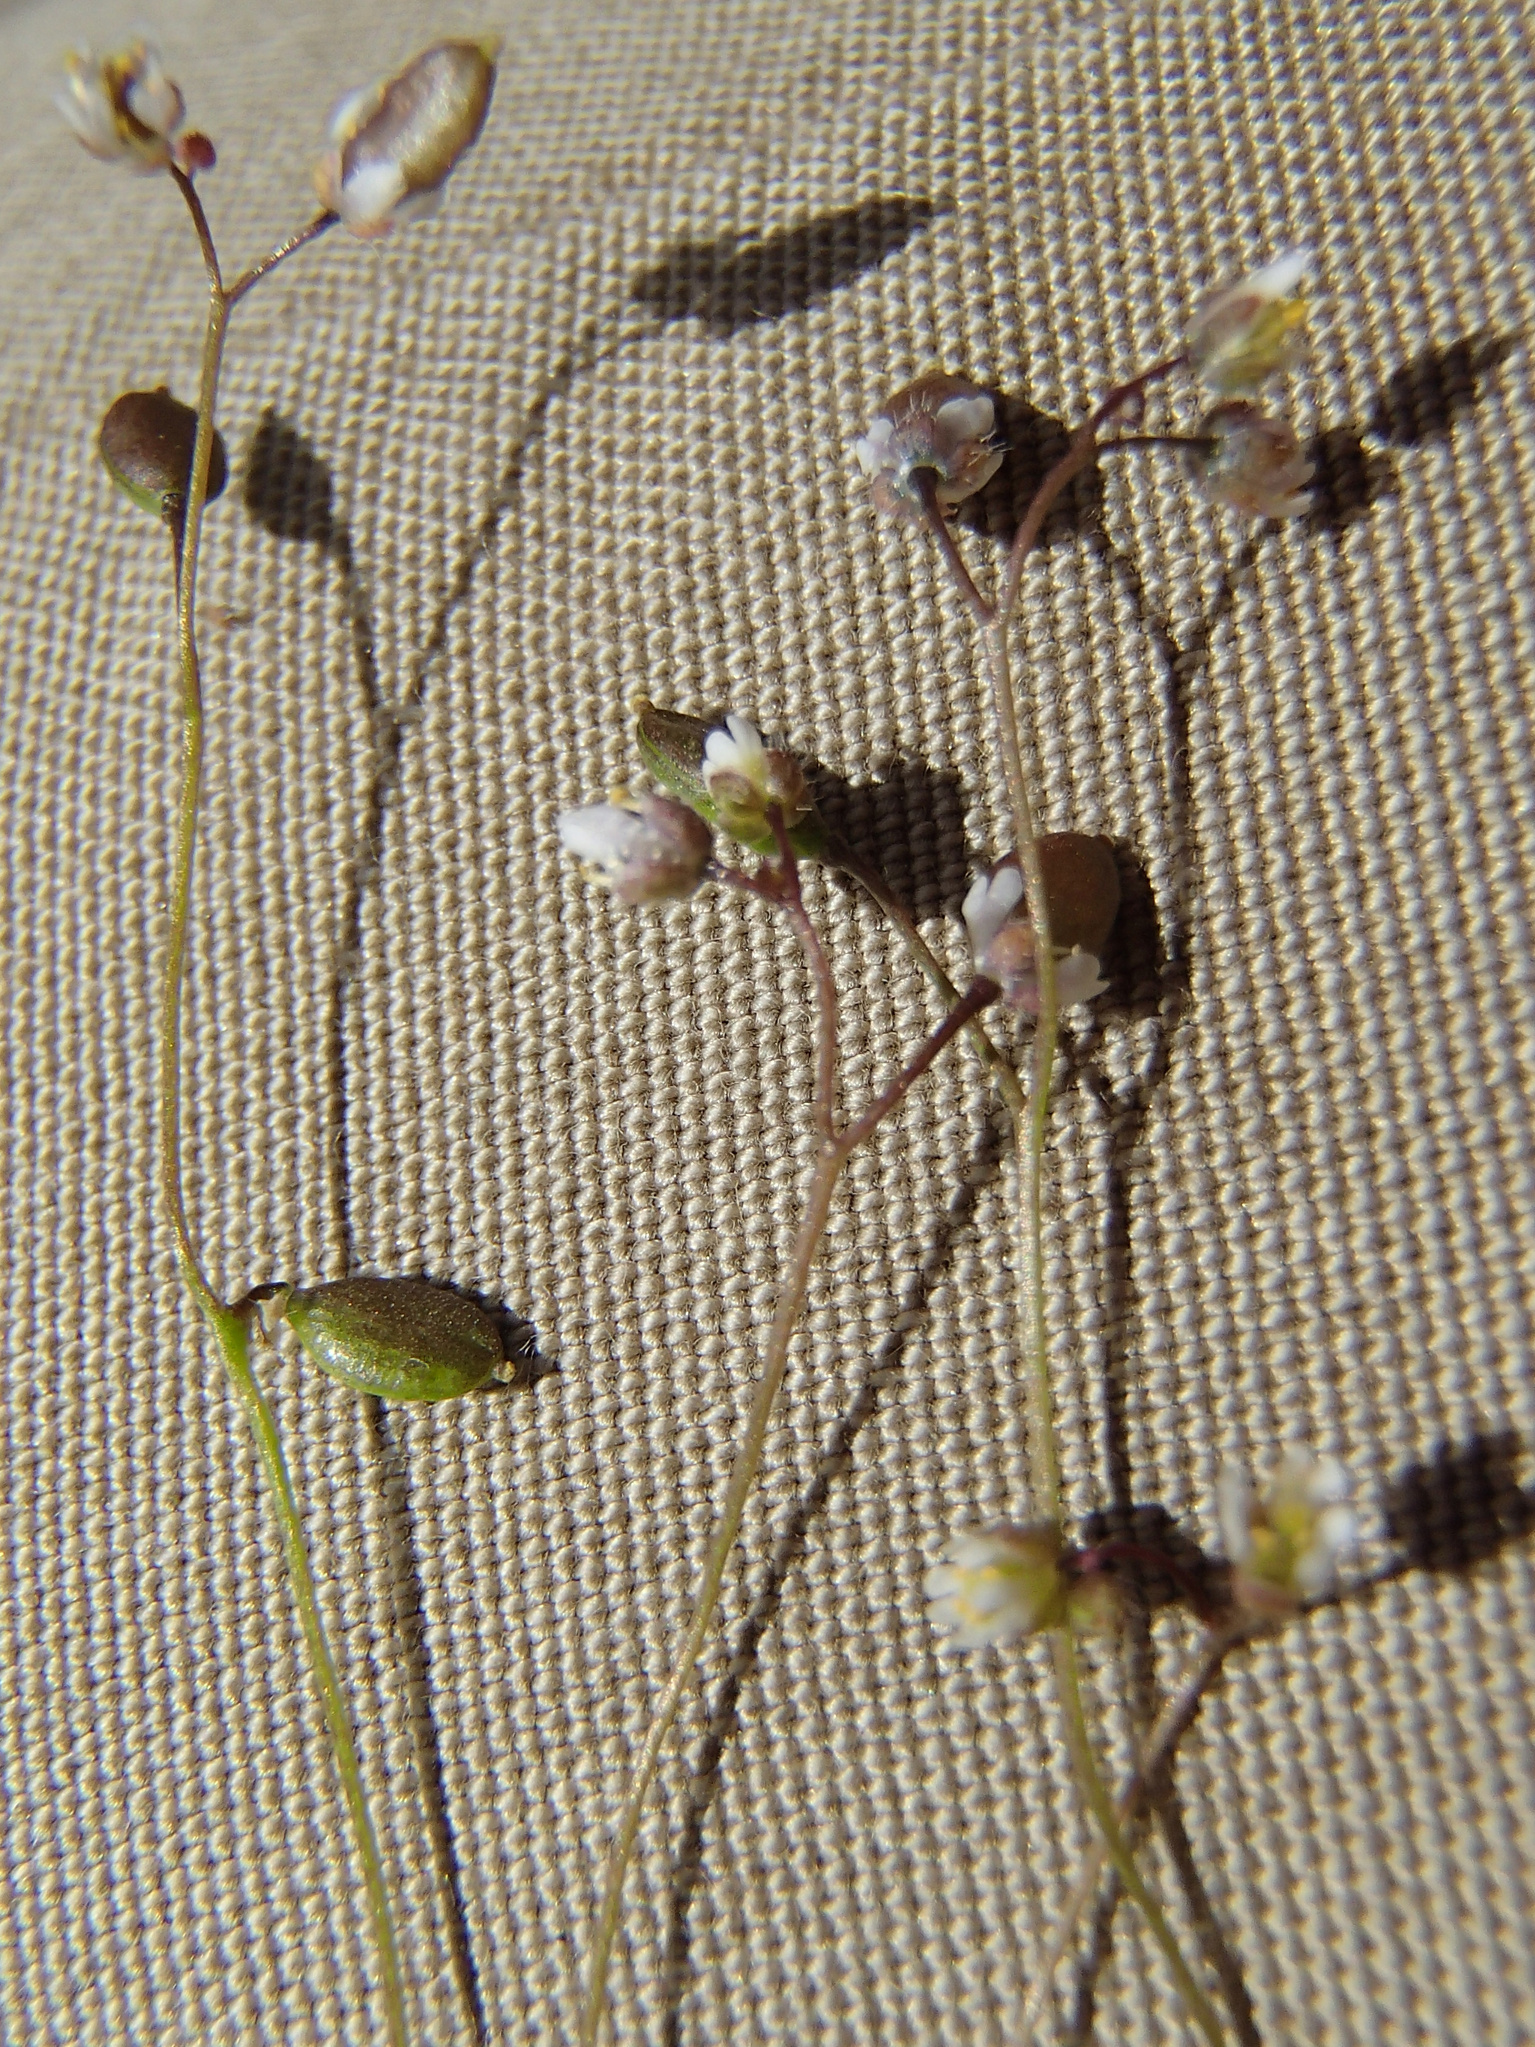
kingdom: Plantae
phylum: Tracheophyta
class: Magnoliopsida
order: Brassicales
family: Brassicaceae
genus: Draba
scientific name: Draba verna
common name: Spring draba
